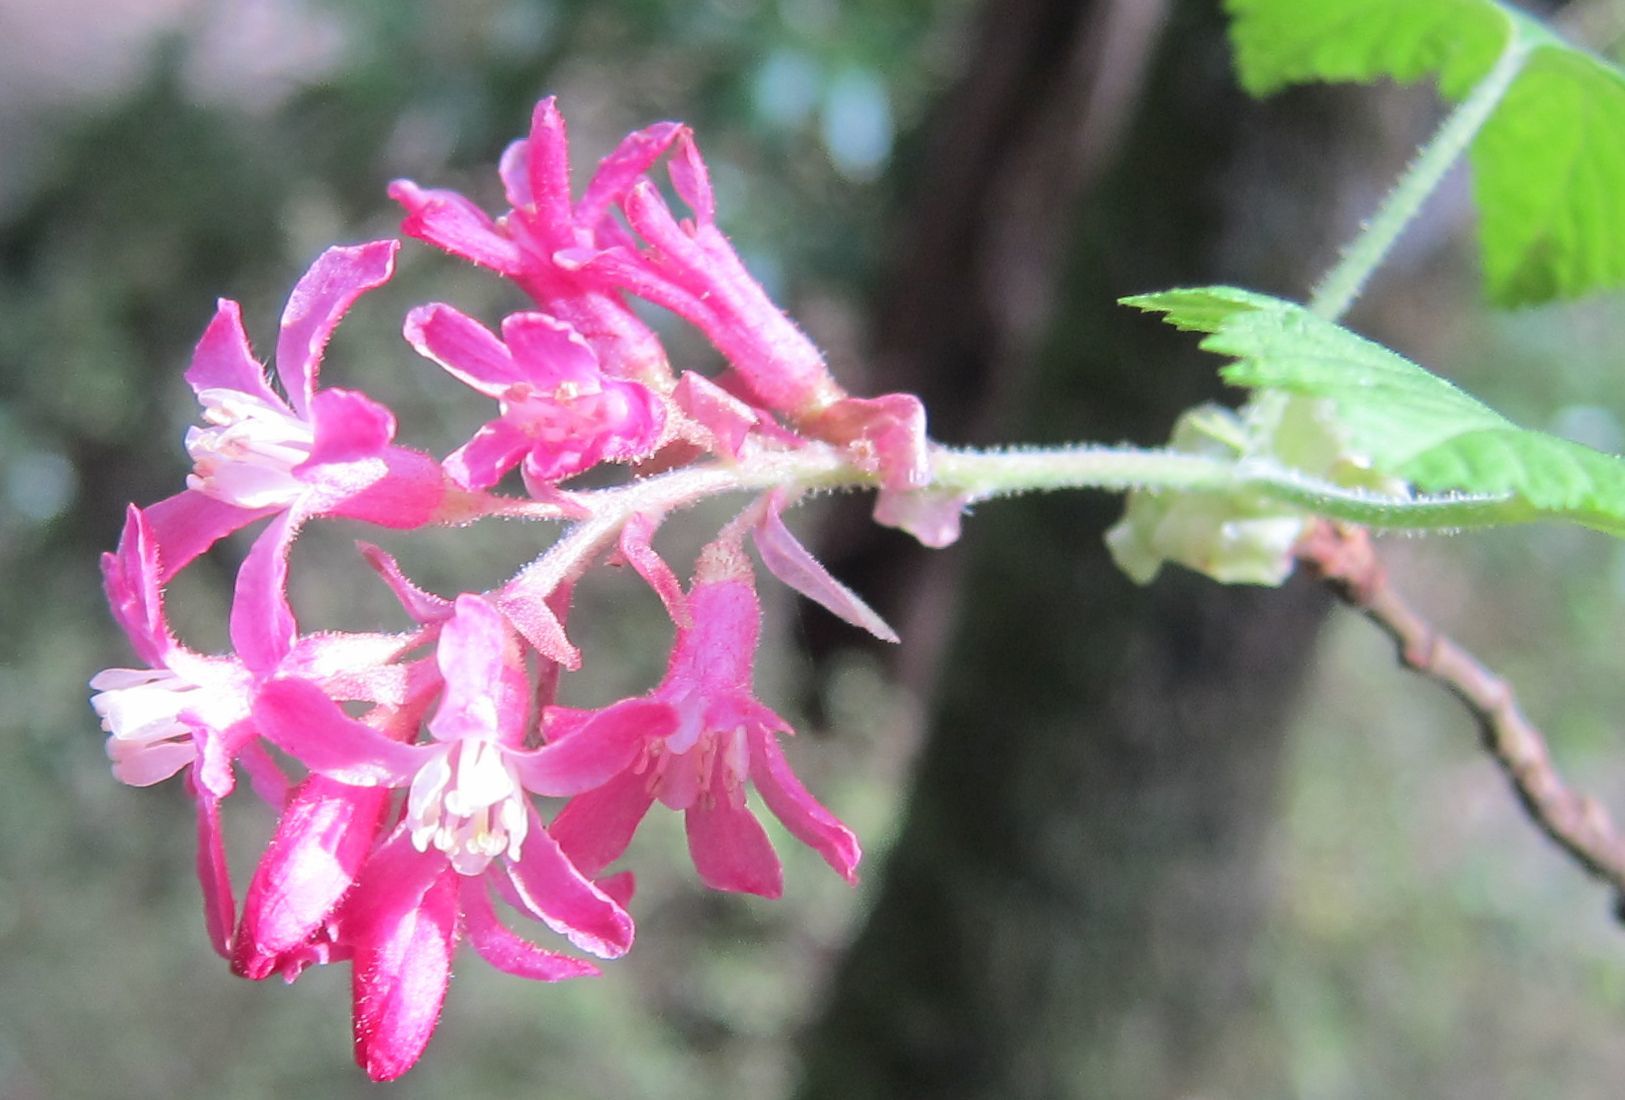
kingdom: Plantae
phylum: Tracheophyta
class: Magnoliopsida
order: Saxifragales
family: Grossulariaceae
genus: Ribes
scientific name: Ribes sanguineum
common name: Flowering currant
